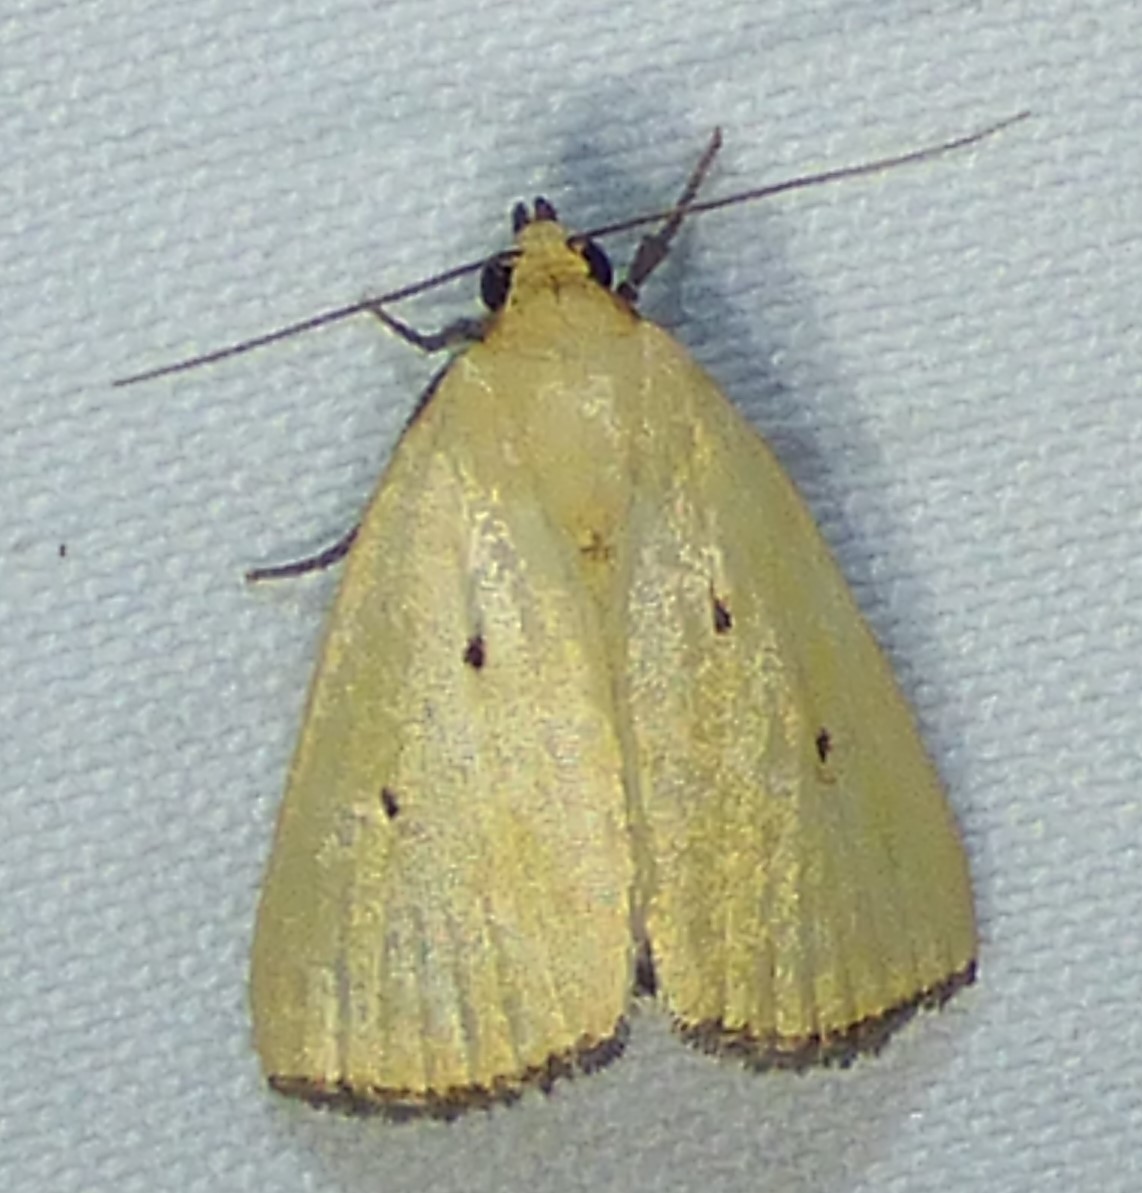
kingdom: Animalia
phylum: Arthropoda
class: Insecta
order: Lepidoptera
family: Noctuidae
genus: Marimatha
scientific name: Marimatha nigrofimbria
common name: Black-bordered lemon moth
